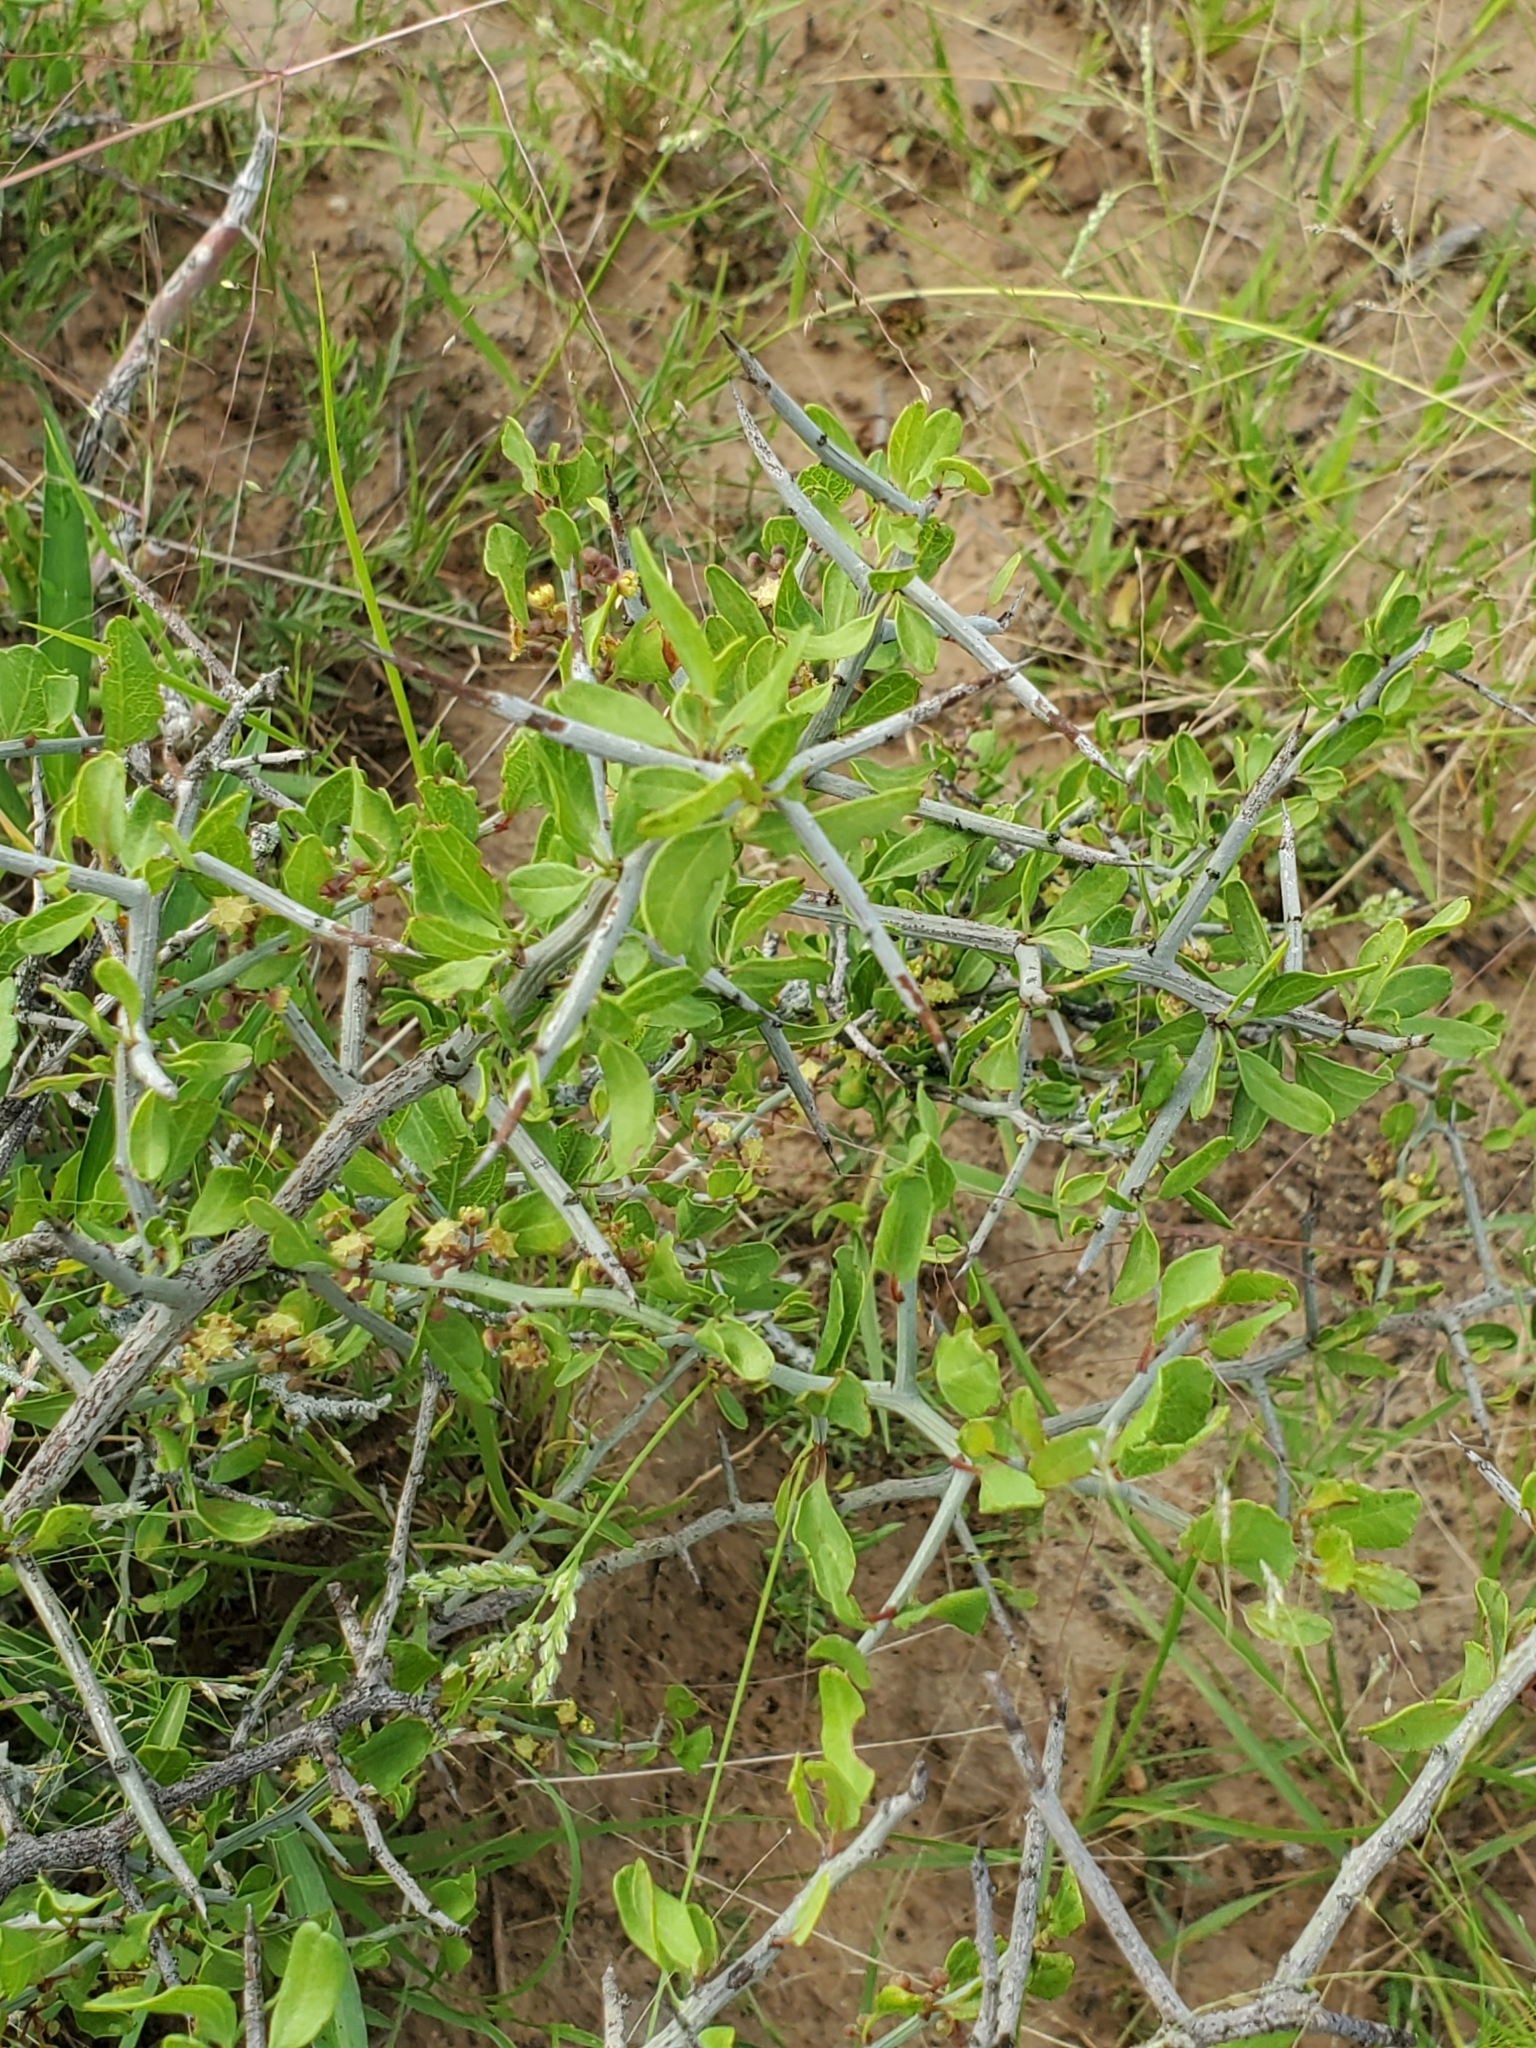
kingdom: Plantae
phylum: Tracheophyta
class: Magnoliopsida
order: Rosales
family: Rhamnaceae
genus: Sarcomphalus
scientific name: Sarcomphalus obtusifolius
